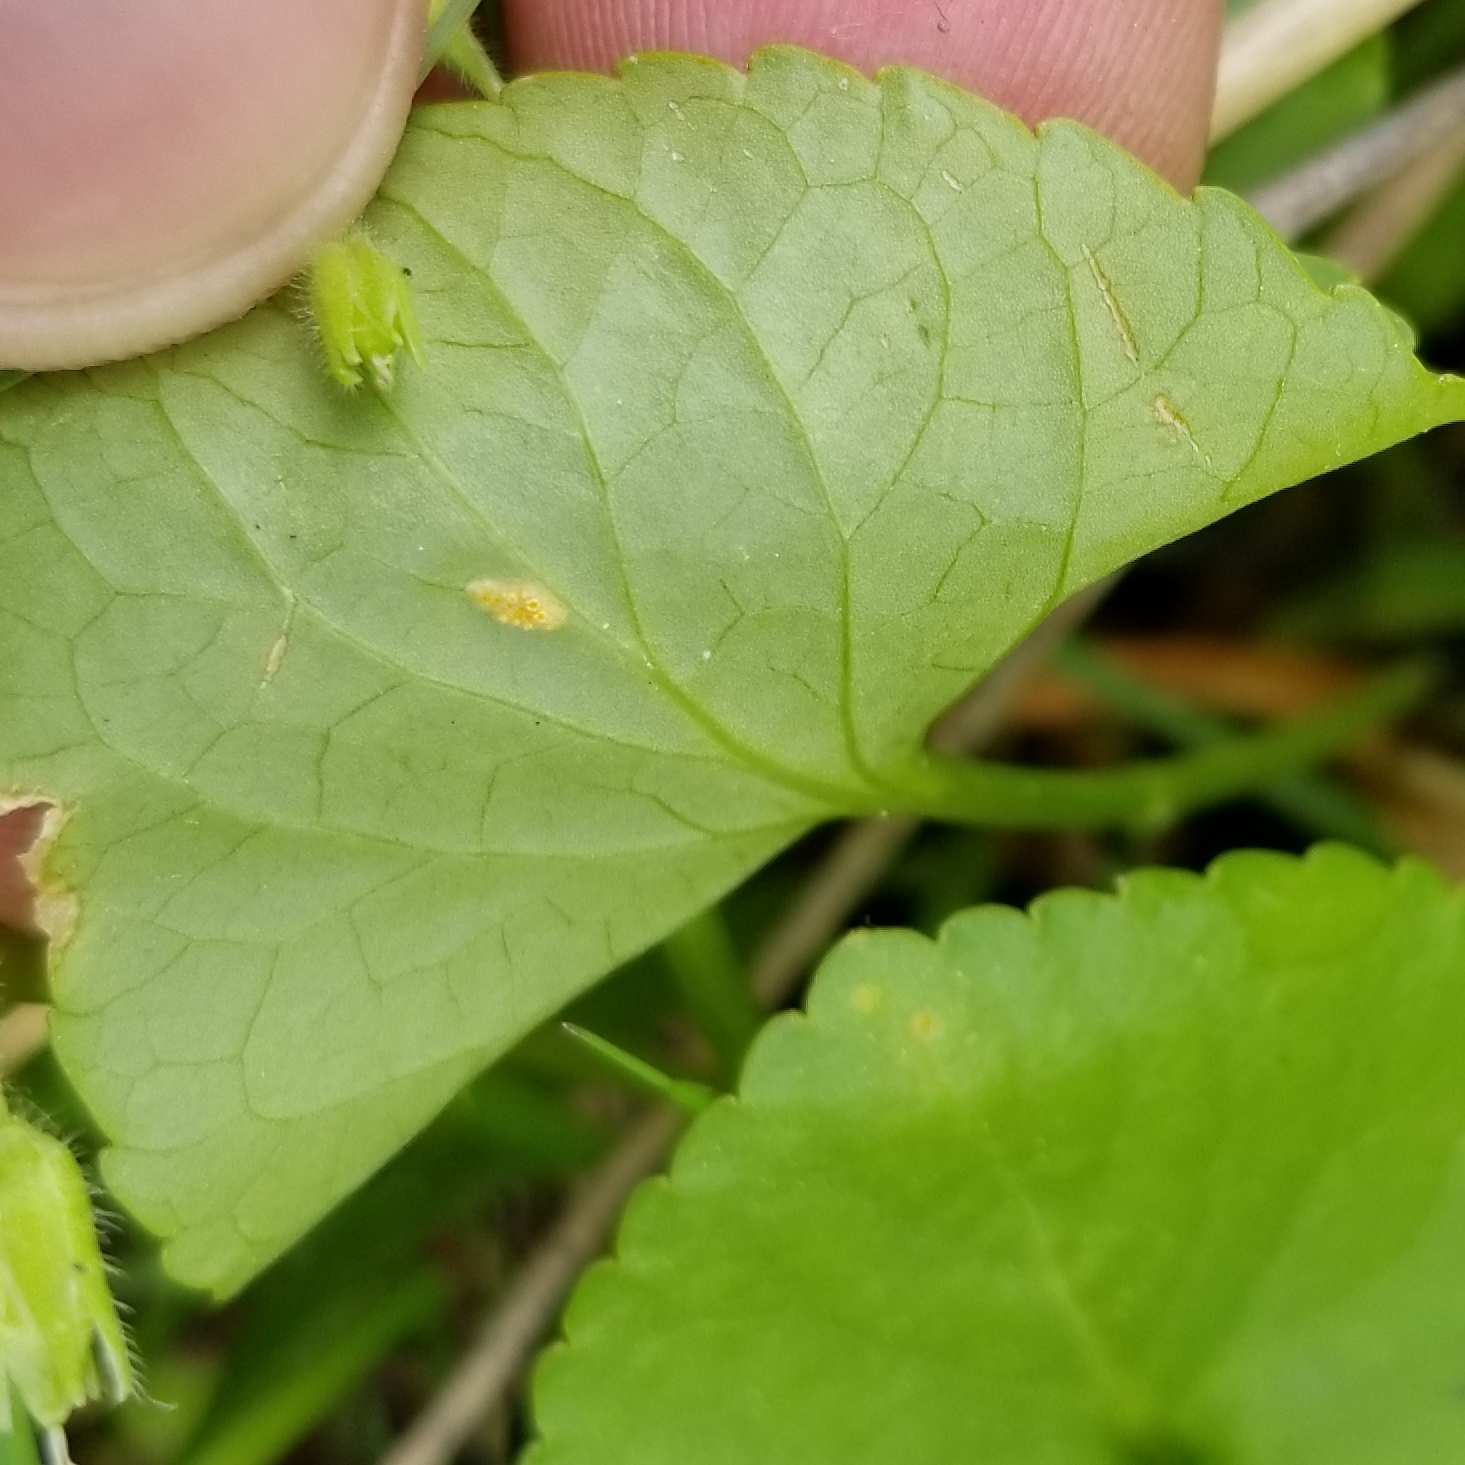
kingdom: Fungi
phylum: Basidiomycota
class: Pucciniomycetes
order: Pucciniales
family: Pucciniaceae
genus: Puccinia
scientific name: Puccinia violae
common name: Violet rust
